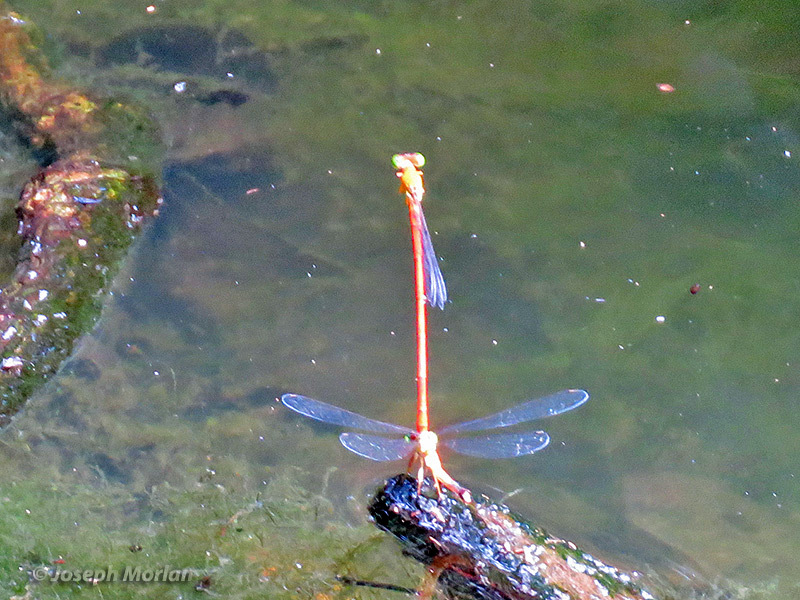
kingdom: Animalia
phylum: Arthropoda
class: Insecta
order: Odonata
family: Coenagrionidae
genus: Ceriagrion
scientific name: Ceriagrion auranticum
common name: Orange-tailed sprite
